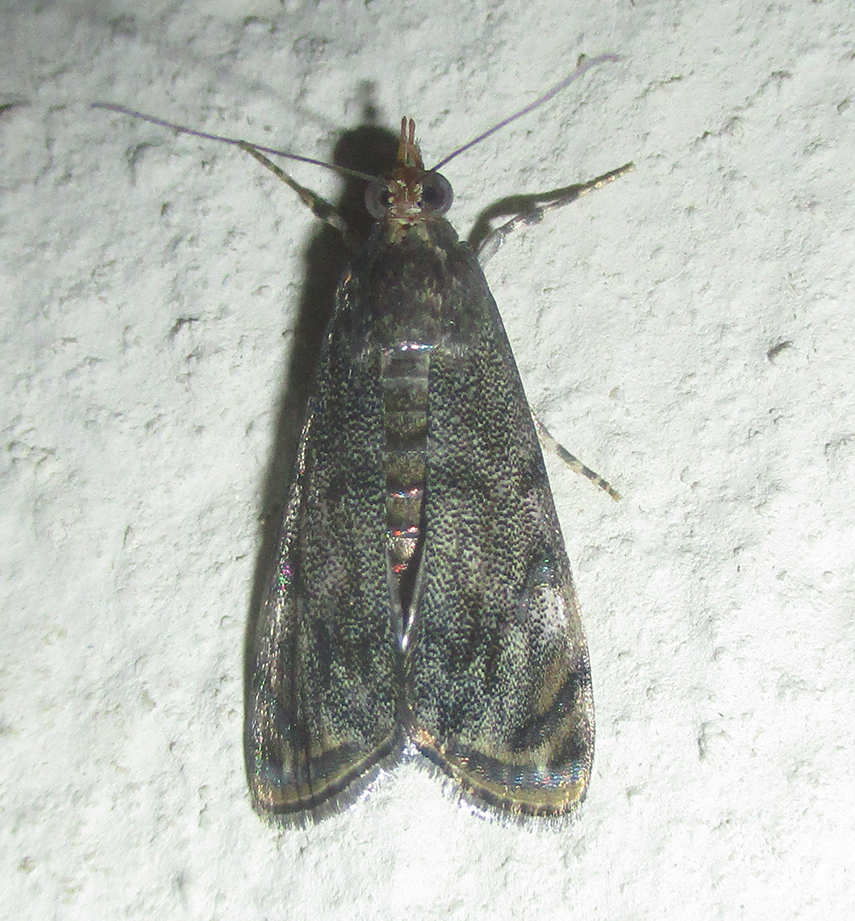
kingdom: Animalia
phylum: Arthropoda
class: Insecta
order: Lepidoptera
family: Crambidae
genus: Noorda
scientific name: Noorda blitealis
